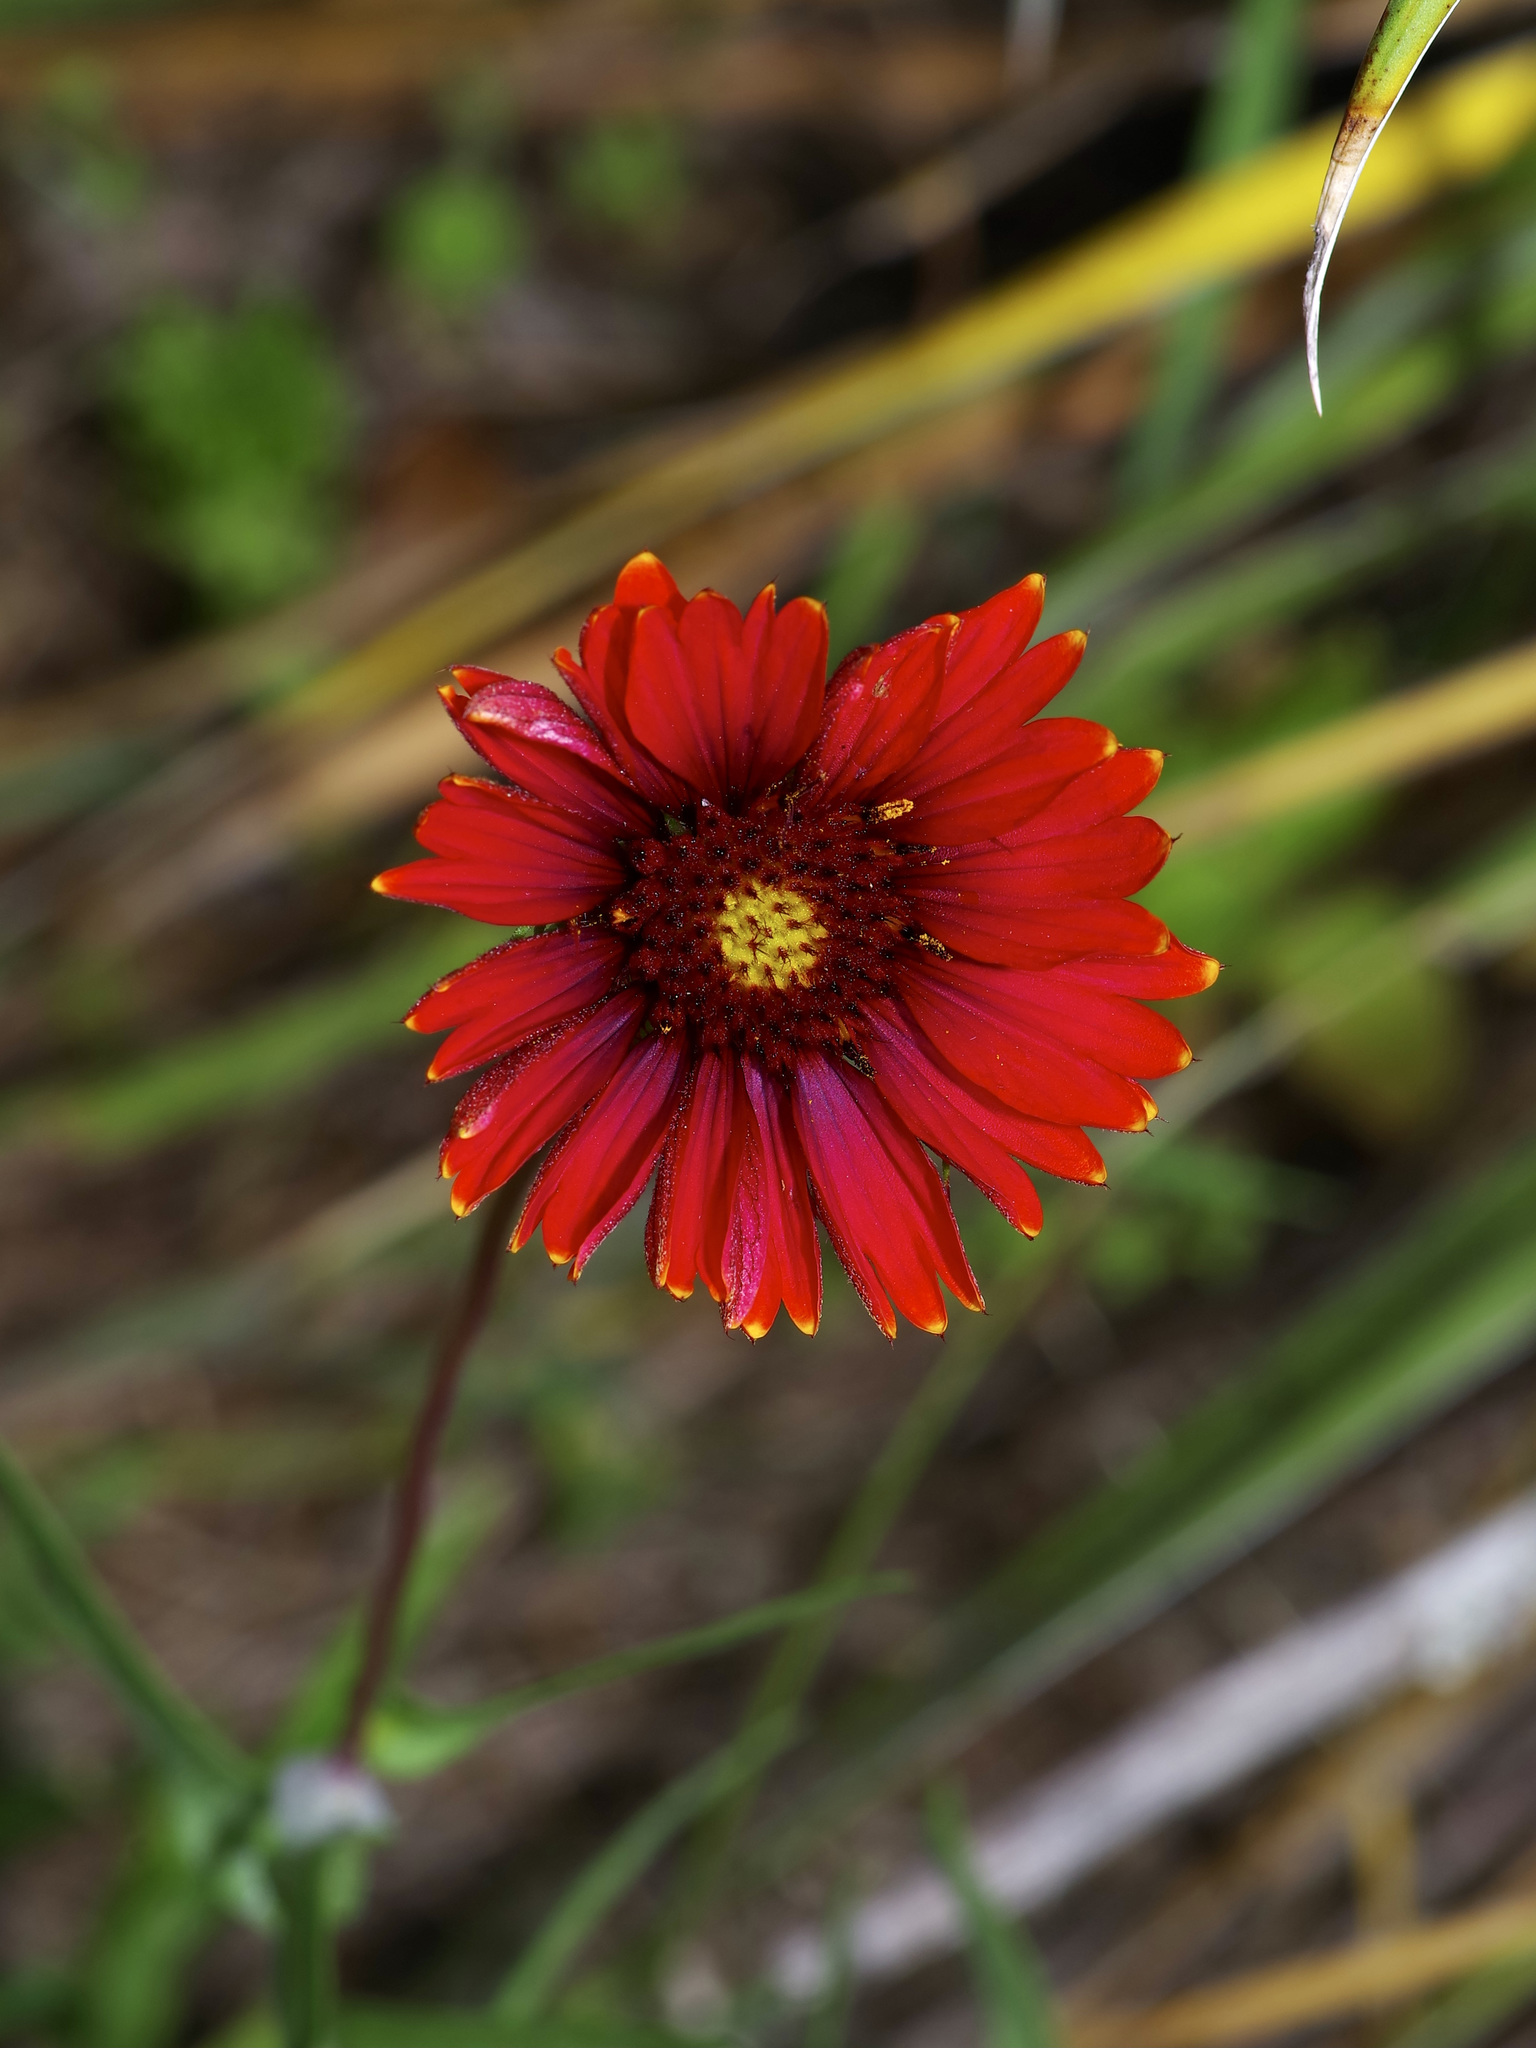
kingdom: Plantae
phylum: Tracheophyta
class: Magnoliopsida
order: Asterales
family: Asteraceae
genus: Gaillardia
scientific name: Gaillardia pulchella
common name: Firewheel
